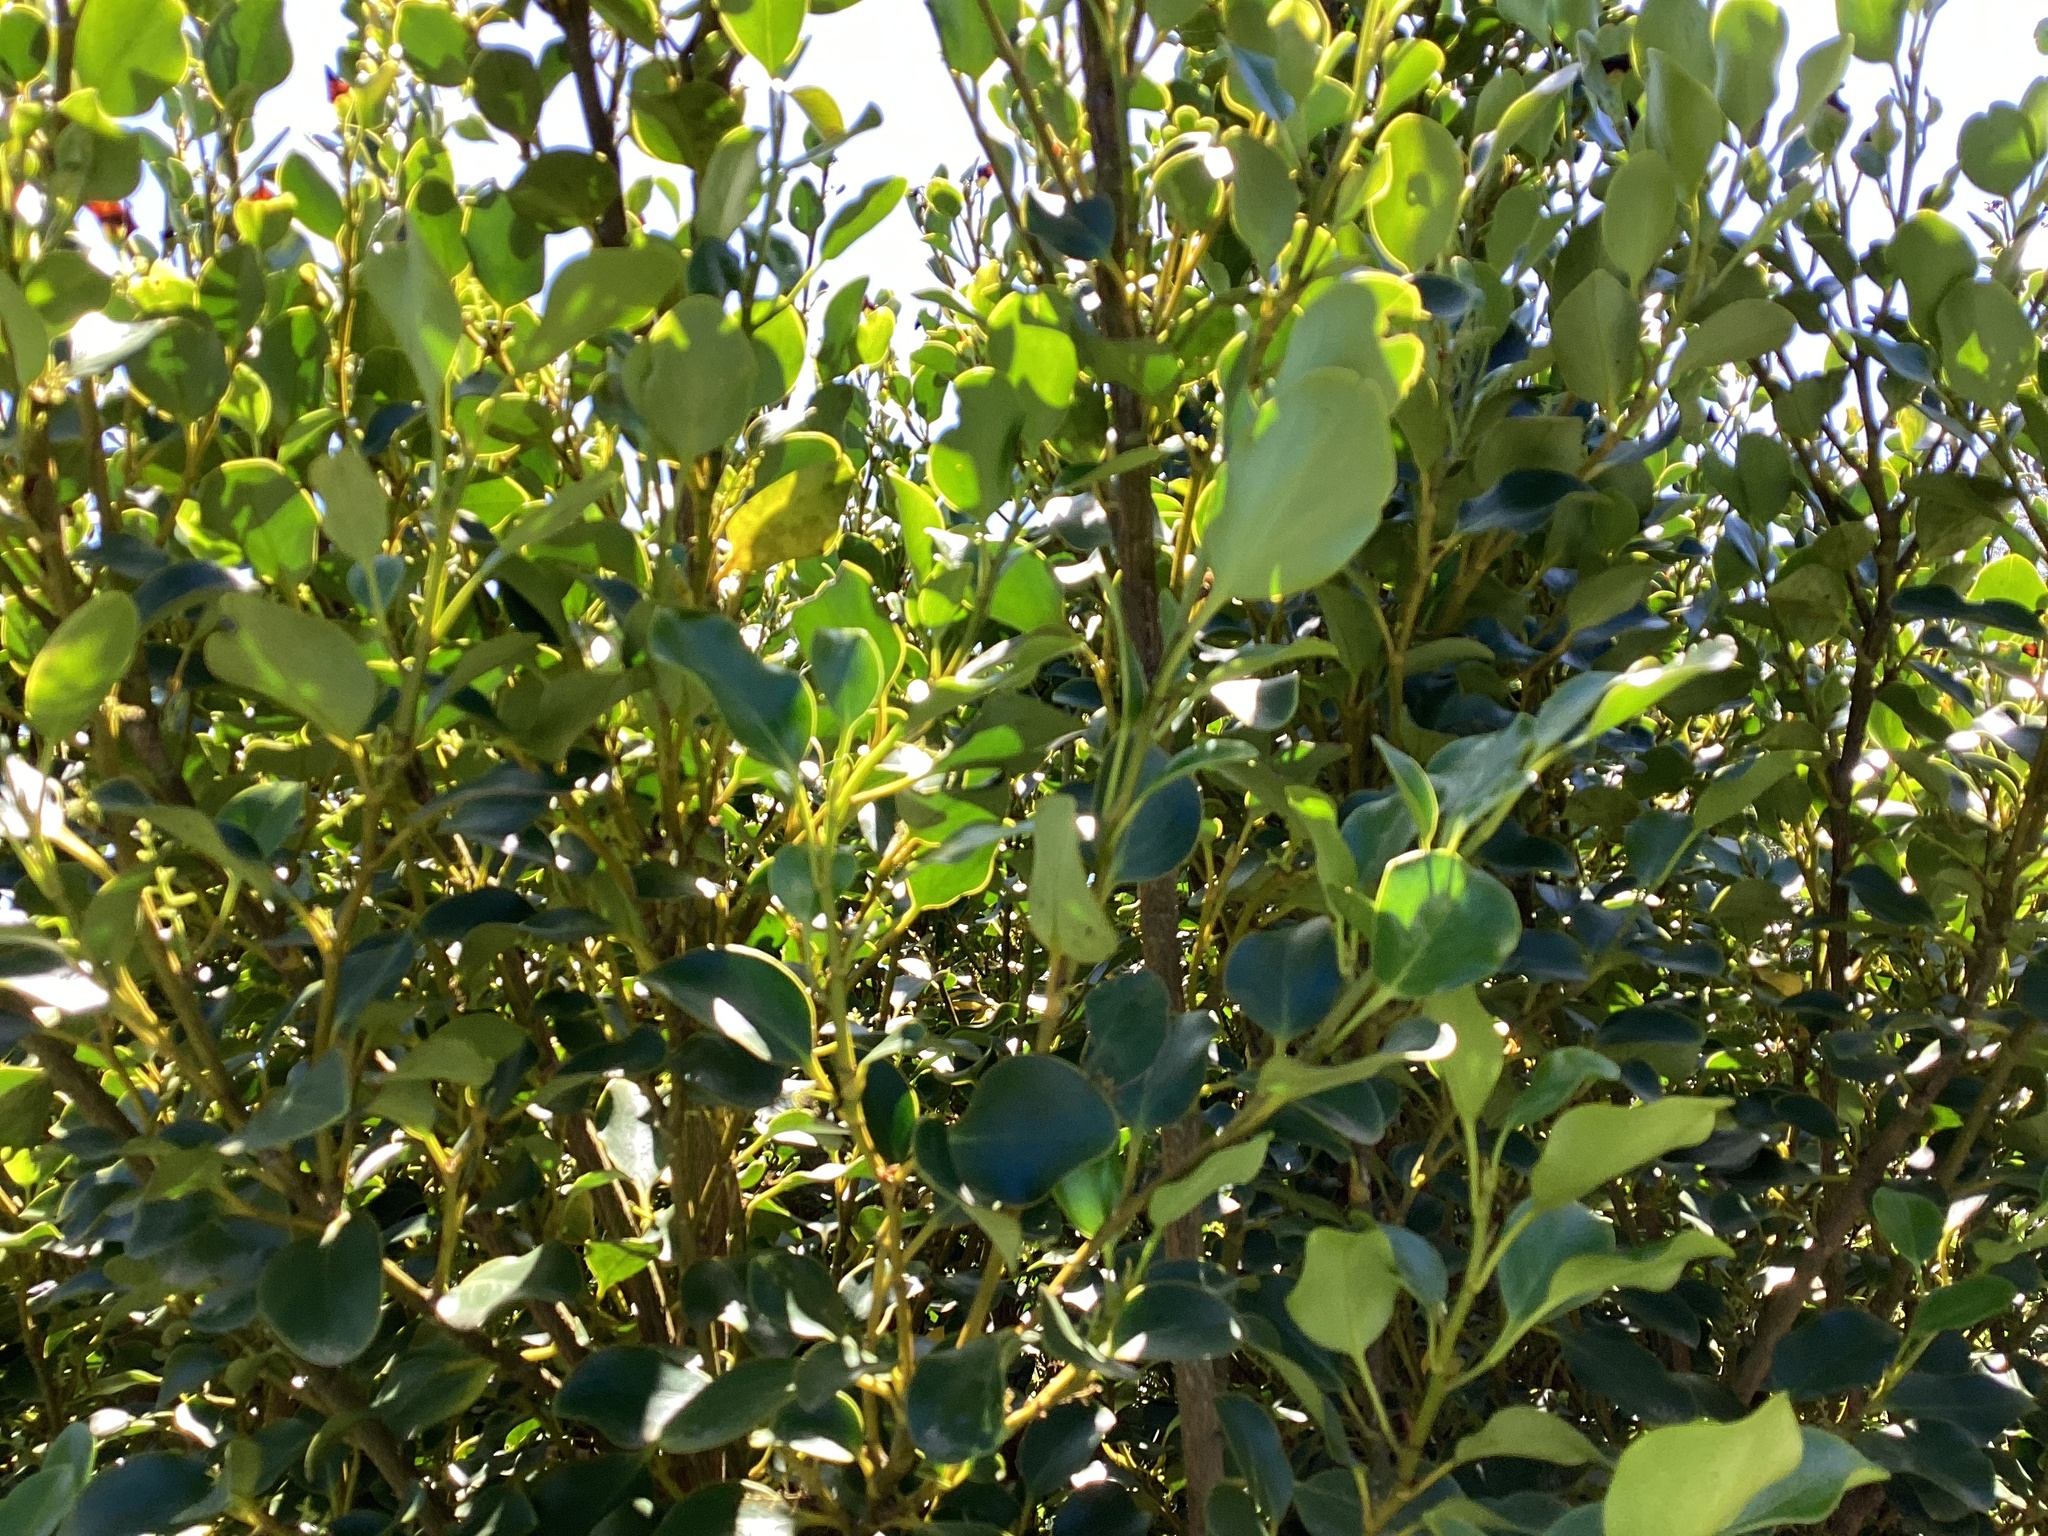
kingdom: Plantae
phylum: Tracheophyta
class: Magnoliopsida
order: Apiales
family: Griseliniaceae
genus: Griselinia
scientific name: Griselinia littoralis
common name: New zealand broadleaf
